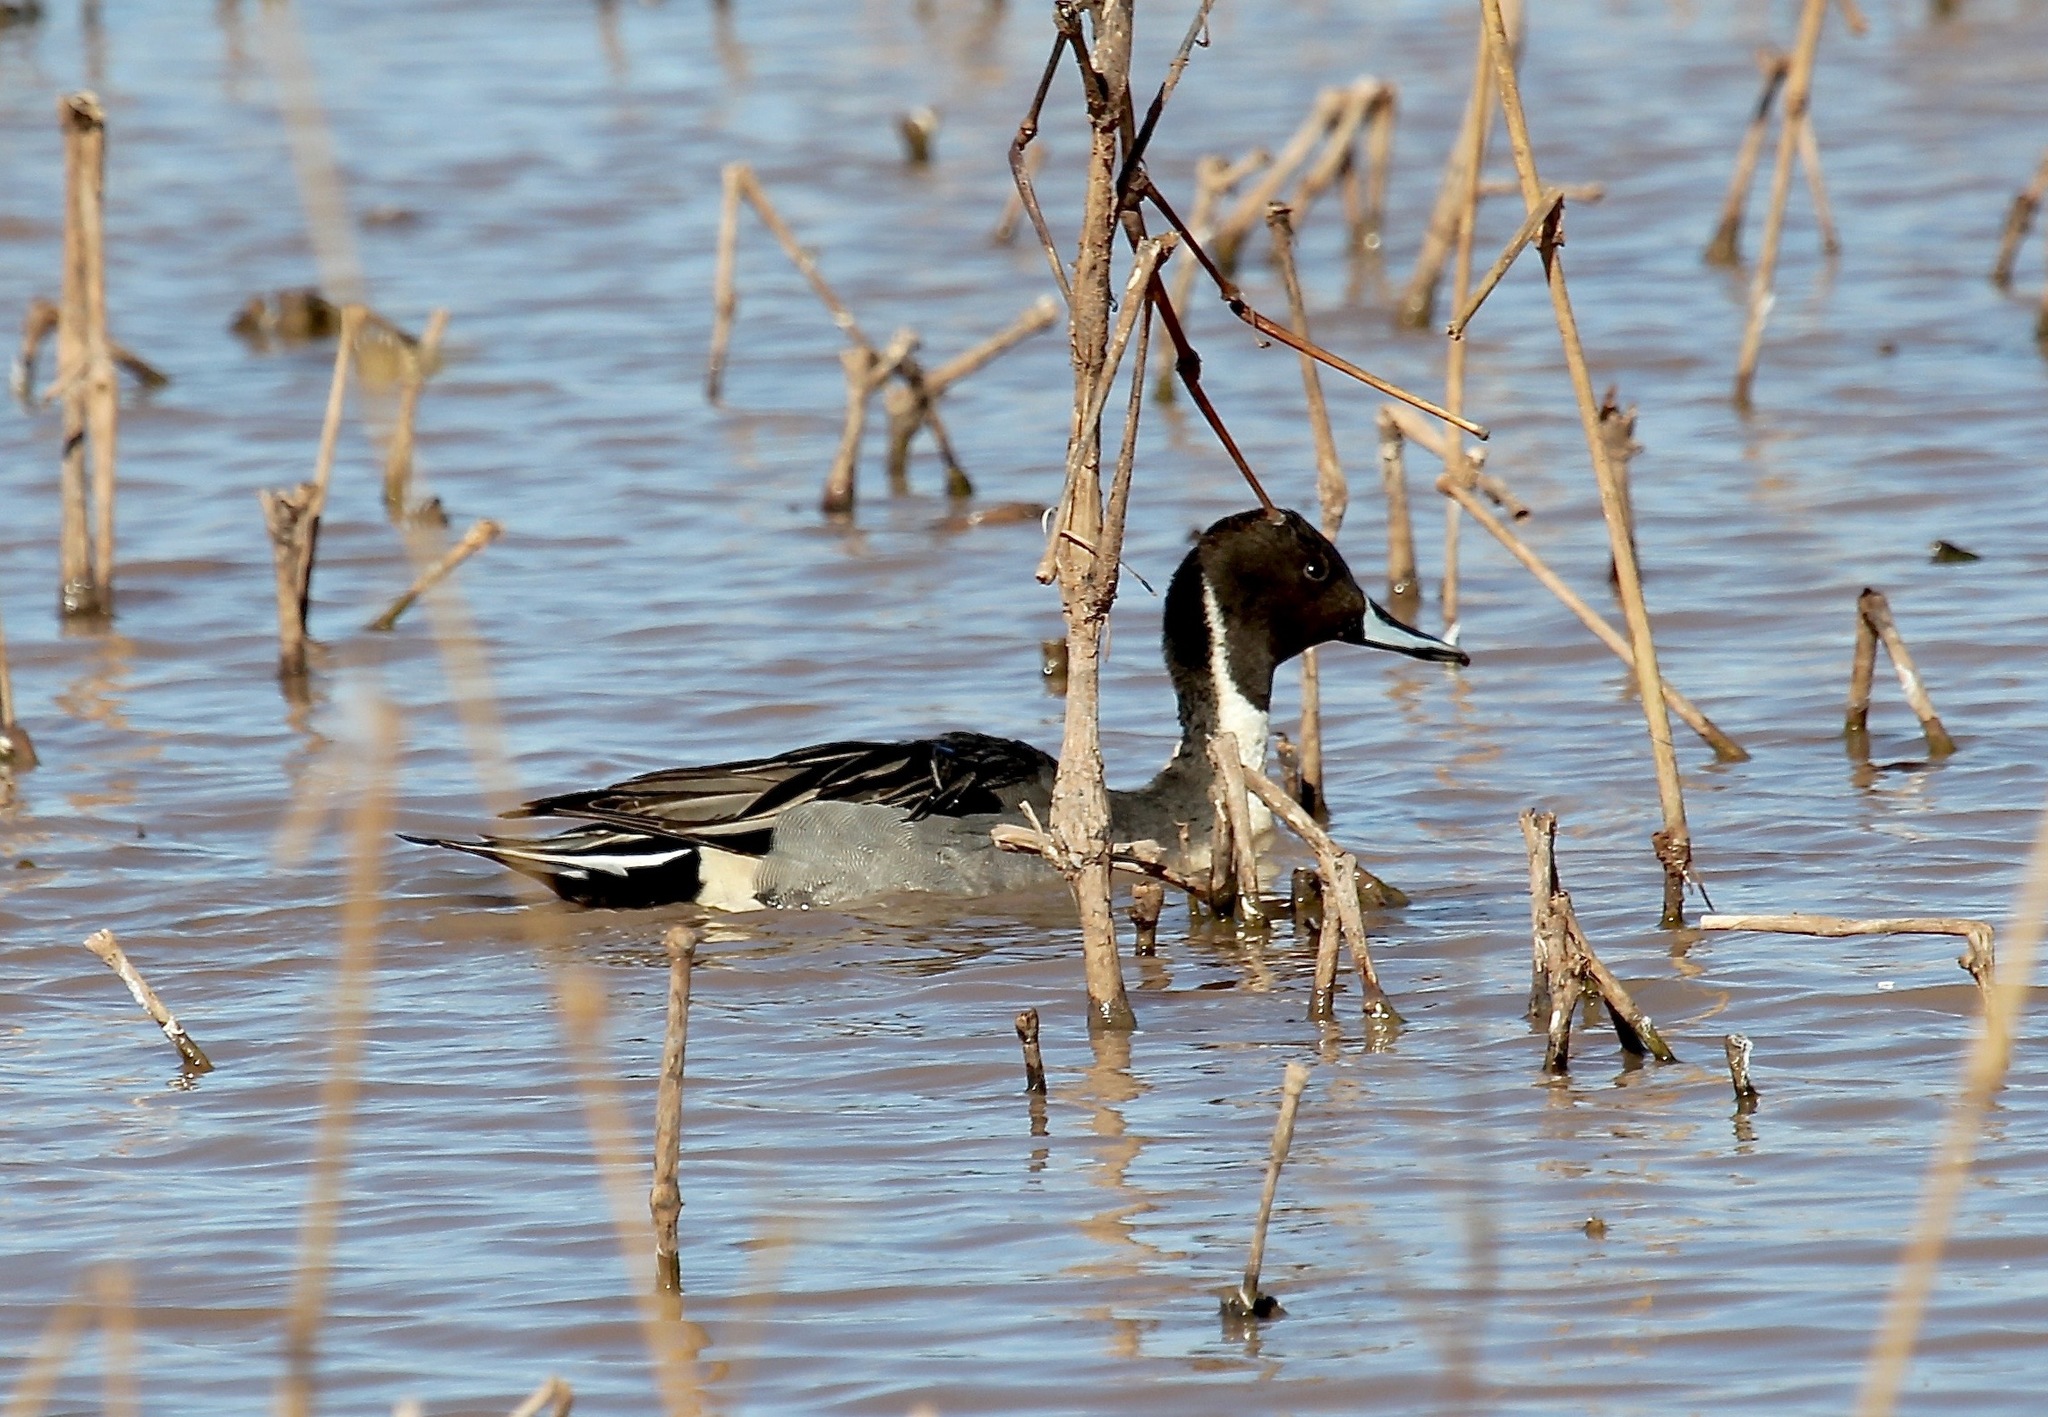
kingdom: Animalia
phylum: Chordata
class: Aves
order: Anseriformes
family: Anatidae
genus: Anas
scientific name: Anas acuta
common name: Northern pintail
